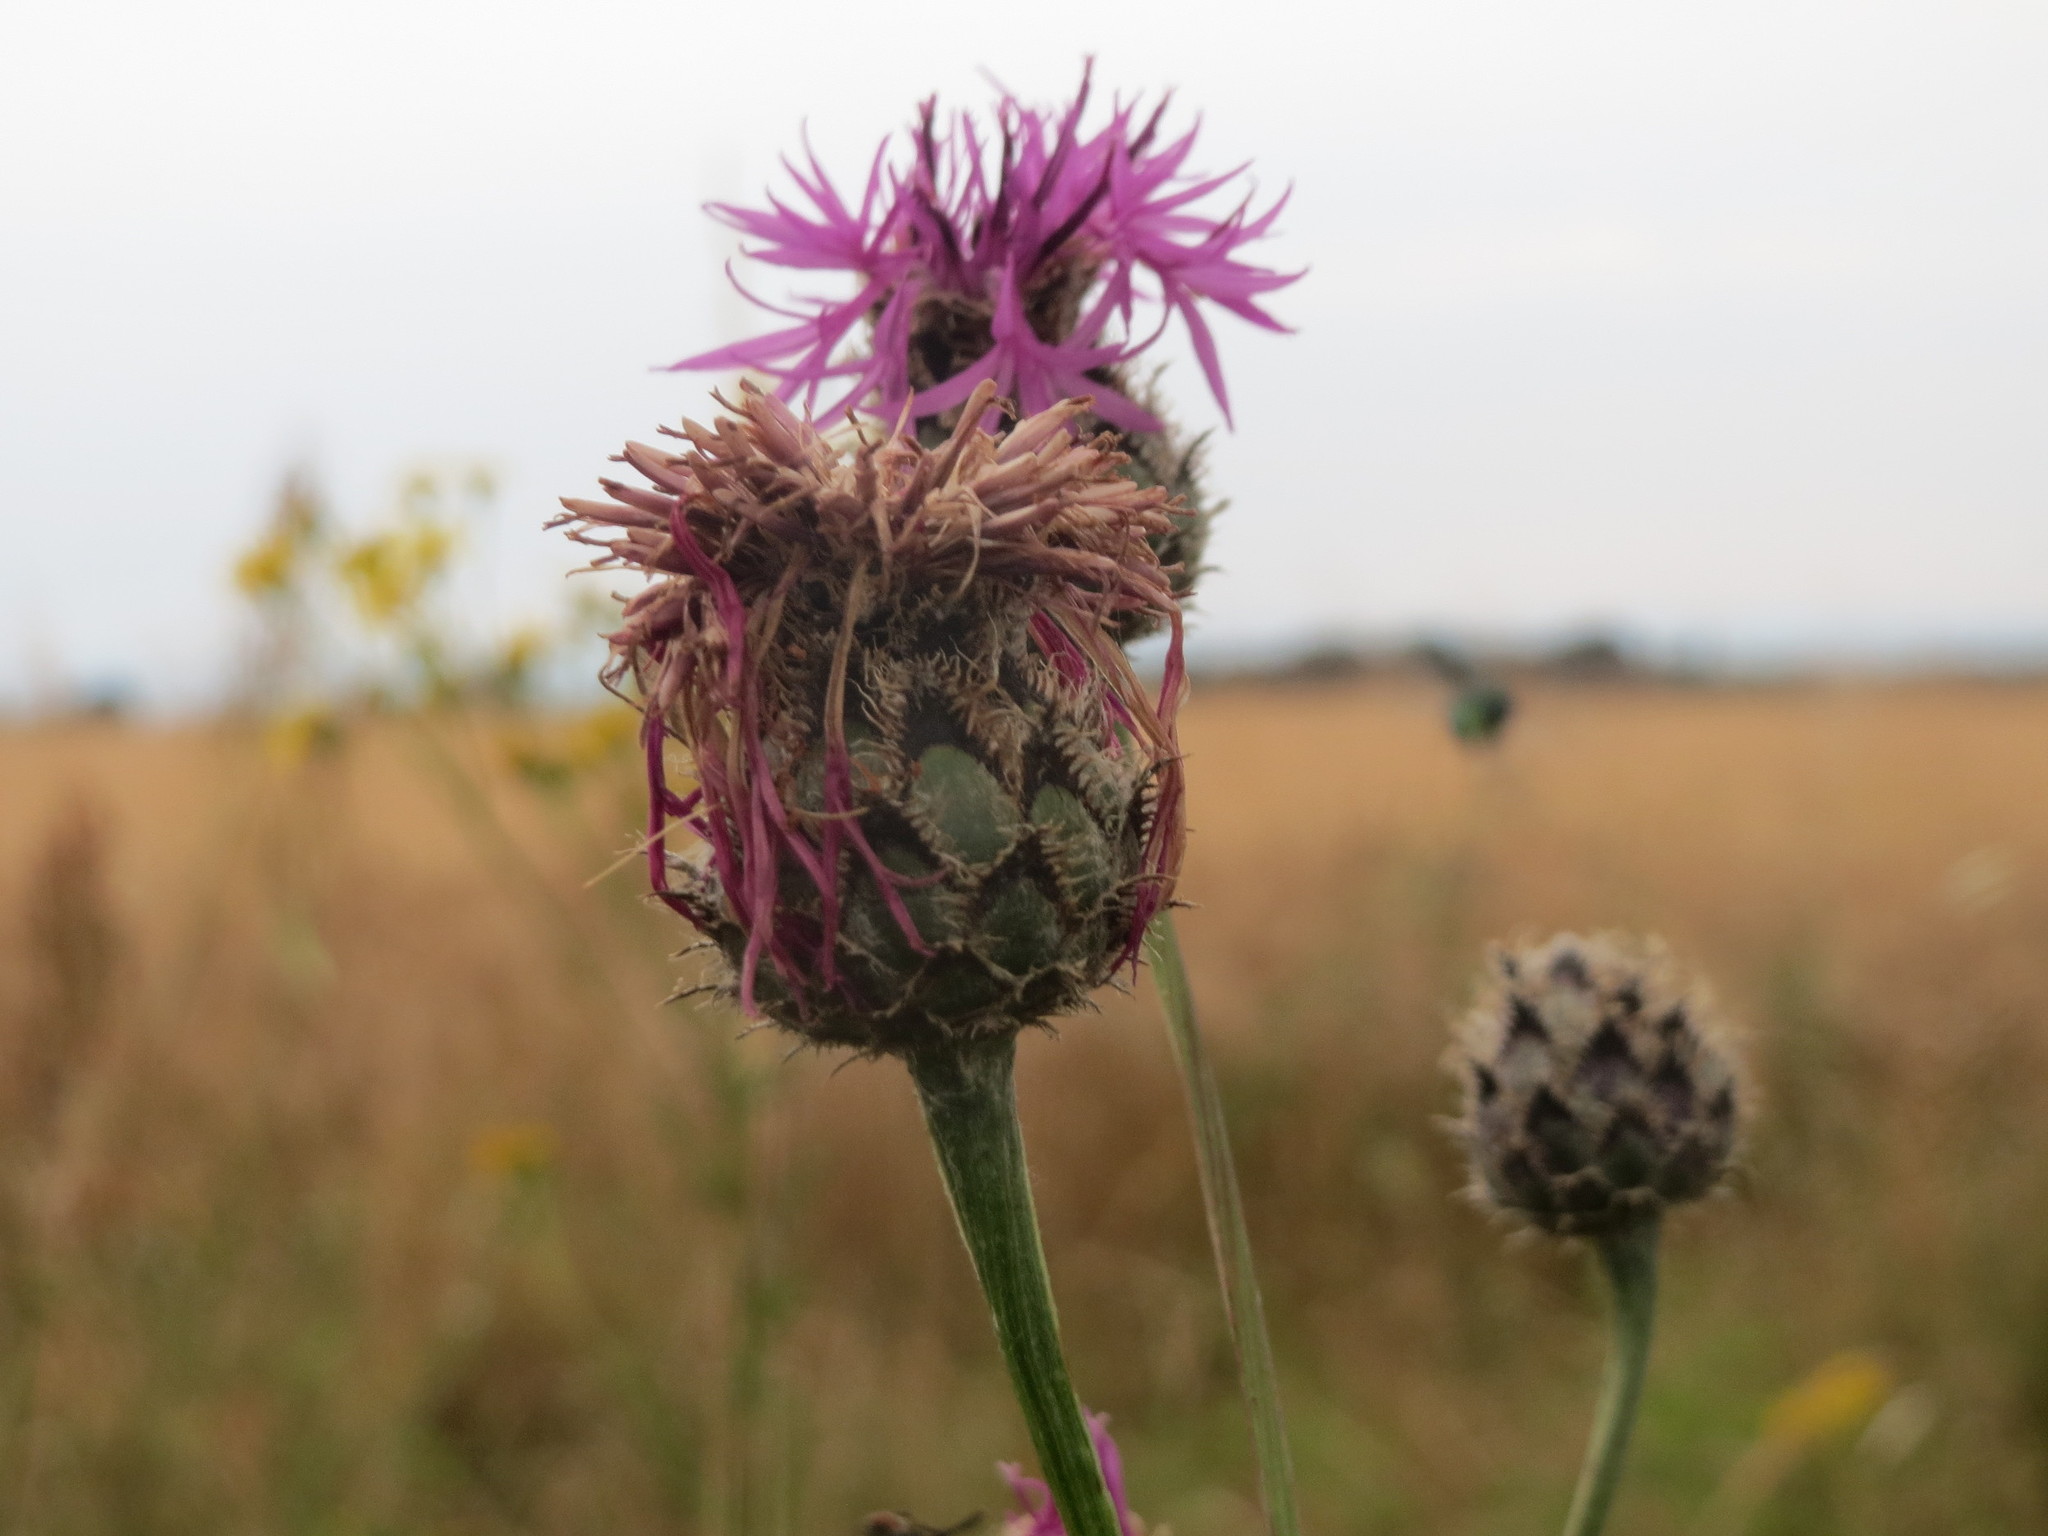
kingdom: Plantae
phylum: Tracheophyta
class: Magnoliopsida
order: Asterales
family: Asteraceae
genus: Centaurea
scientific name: Centaurea scabiosa
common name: Greater knapweed
